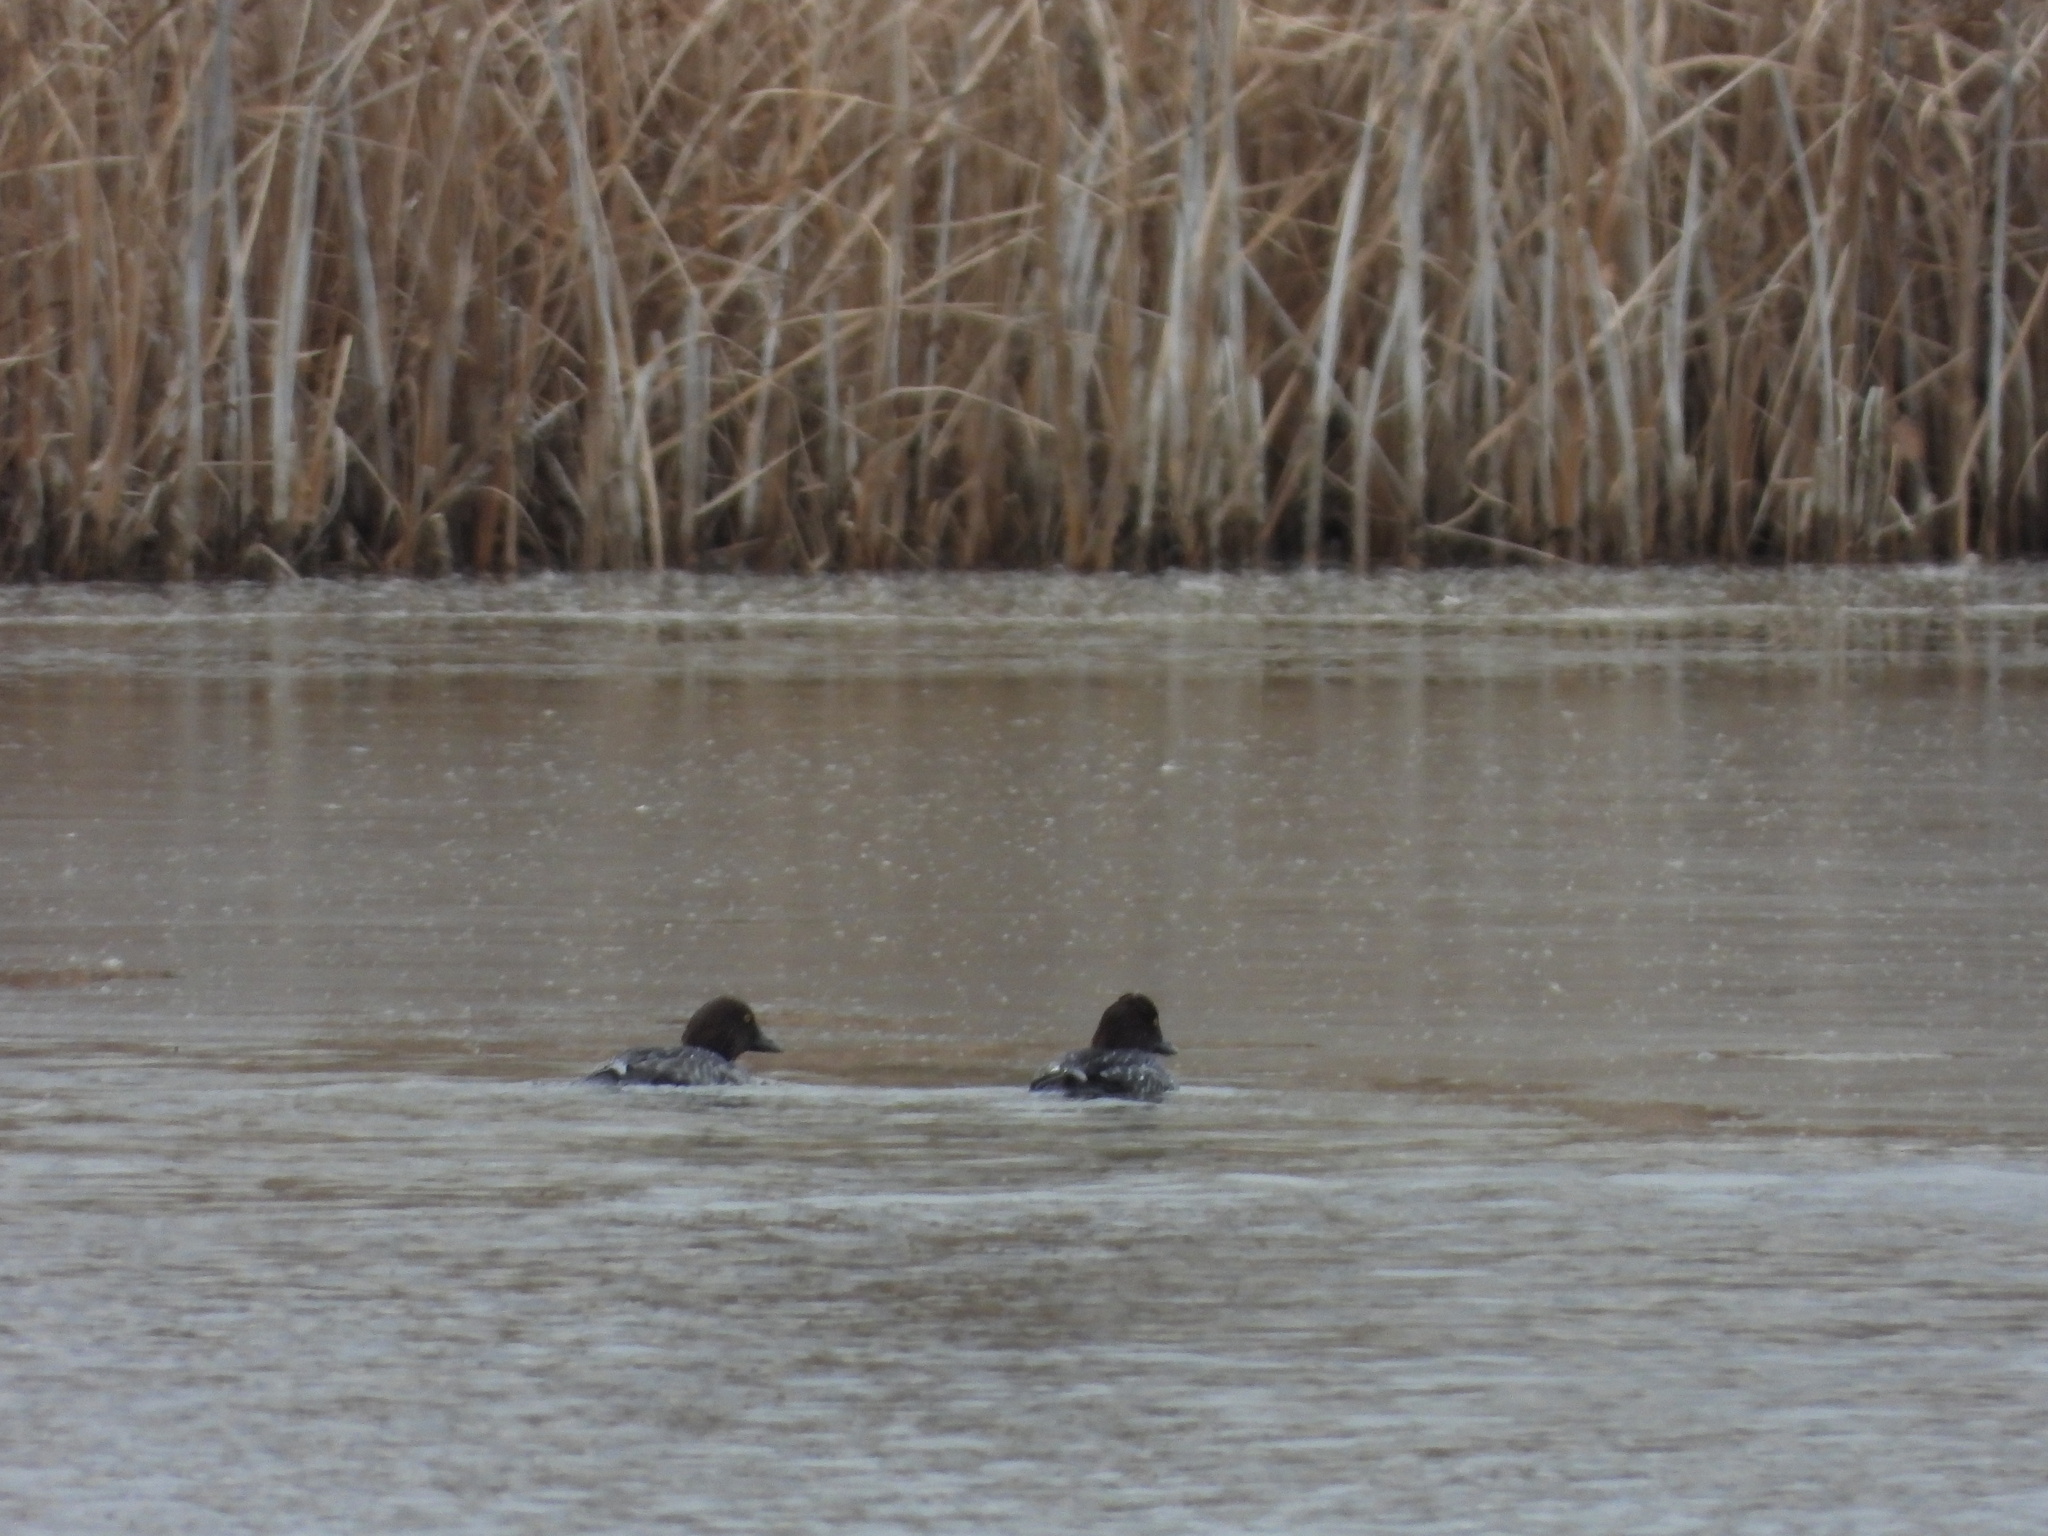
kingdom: Animalia
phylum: Chordata
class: Aves
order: Anseriformes
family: Anatidae
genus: Bucephala
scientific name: Bucephala clangula
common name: Common goldeneye
